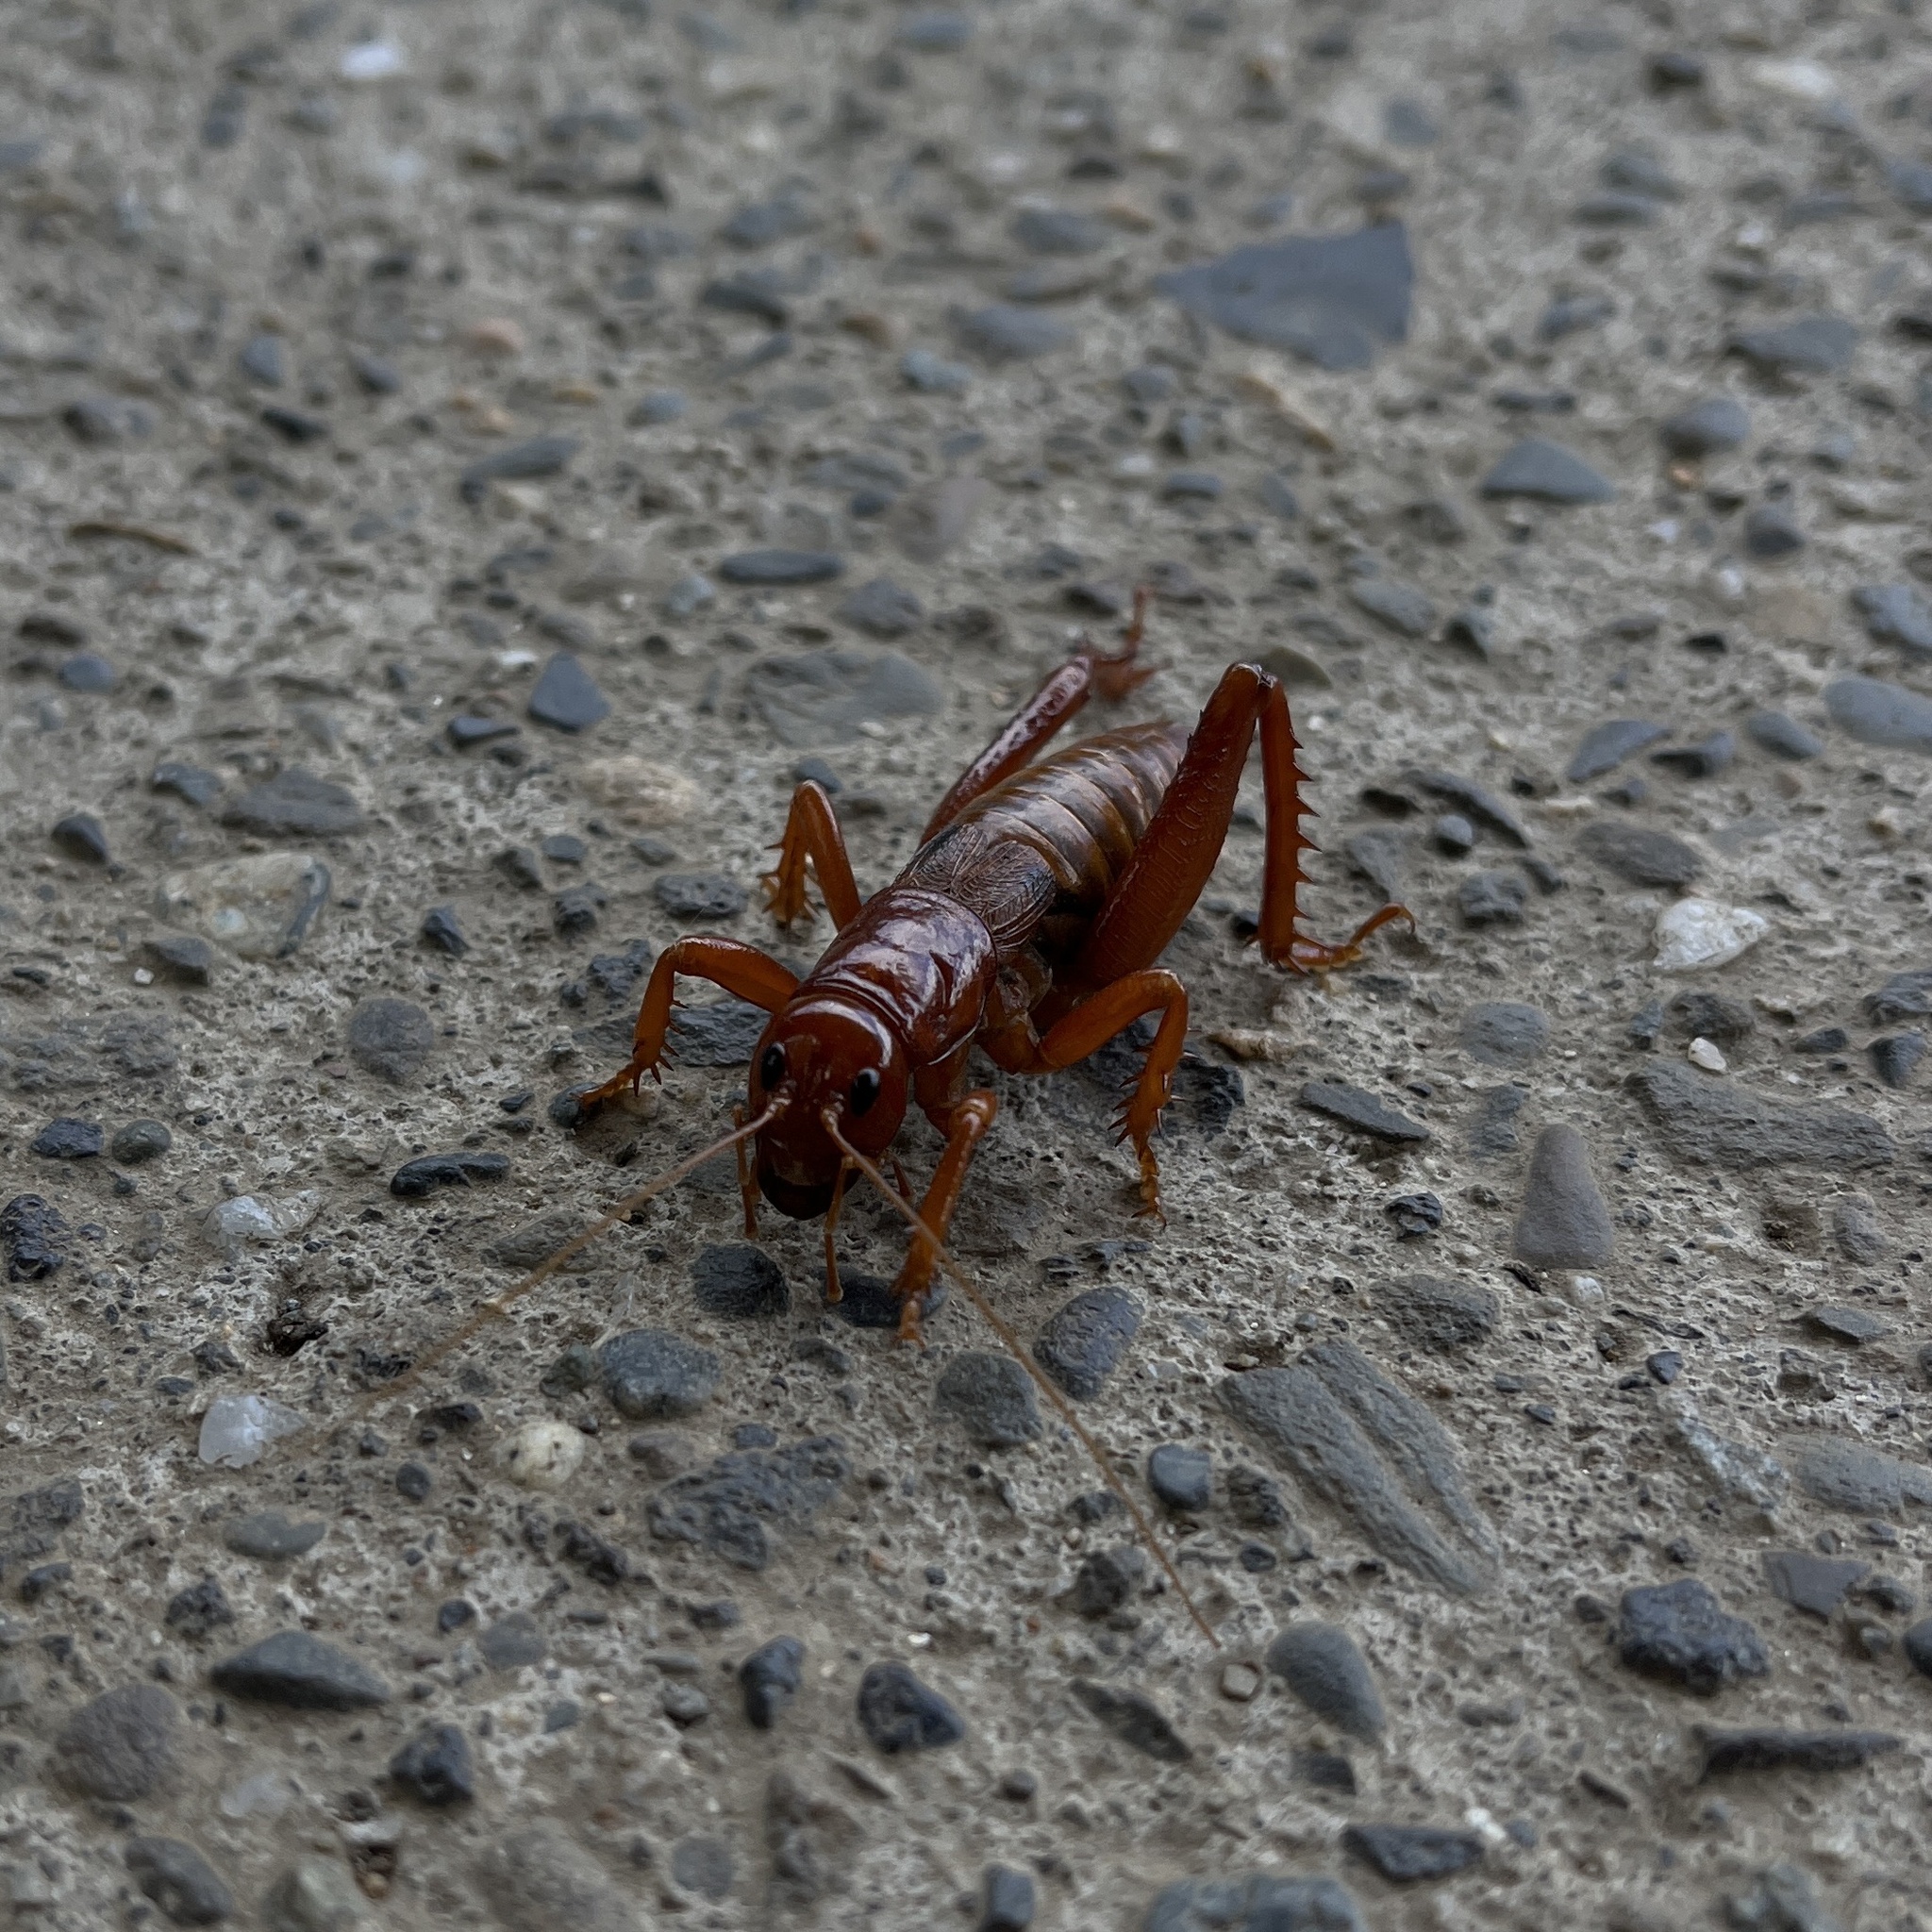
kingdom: Animalia
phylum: Arthropoda
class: Insecta
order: Orthoptera
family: Anostostomatidae
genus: Cratomelus
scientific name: Cratomelus armatus
